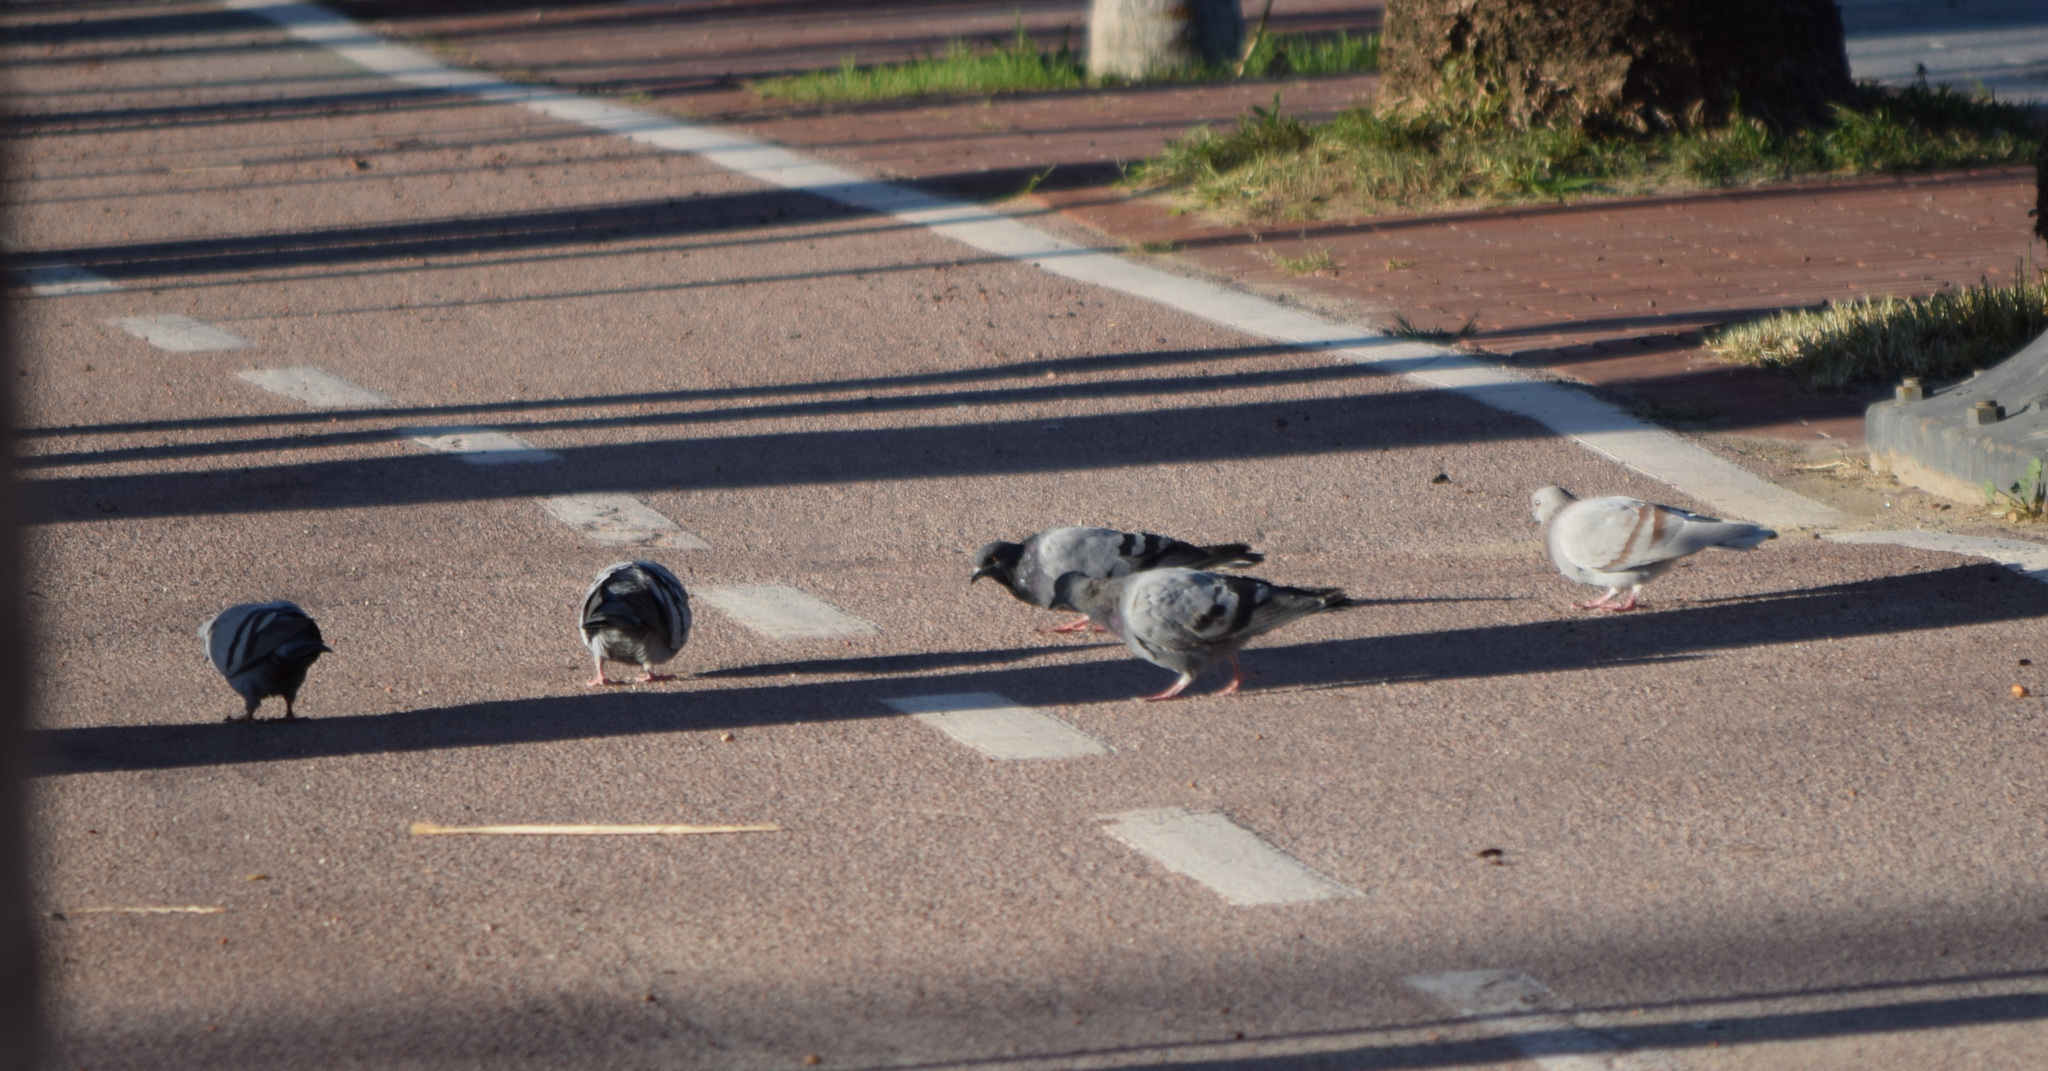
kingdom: Animalia
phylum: Chordata
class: Aves
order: Columbiformes
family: Columbidae
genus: Columba
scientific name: Columba livia
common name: Rock pigeon
